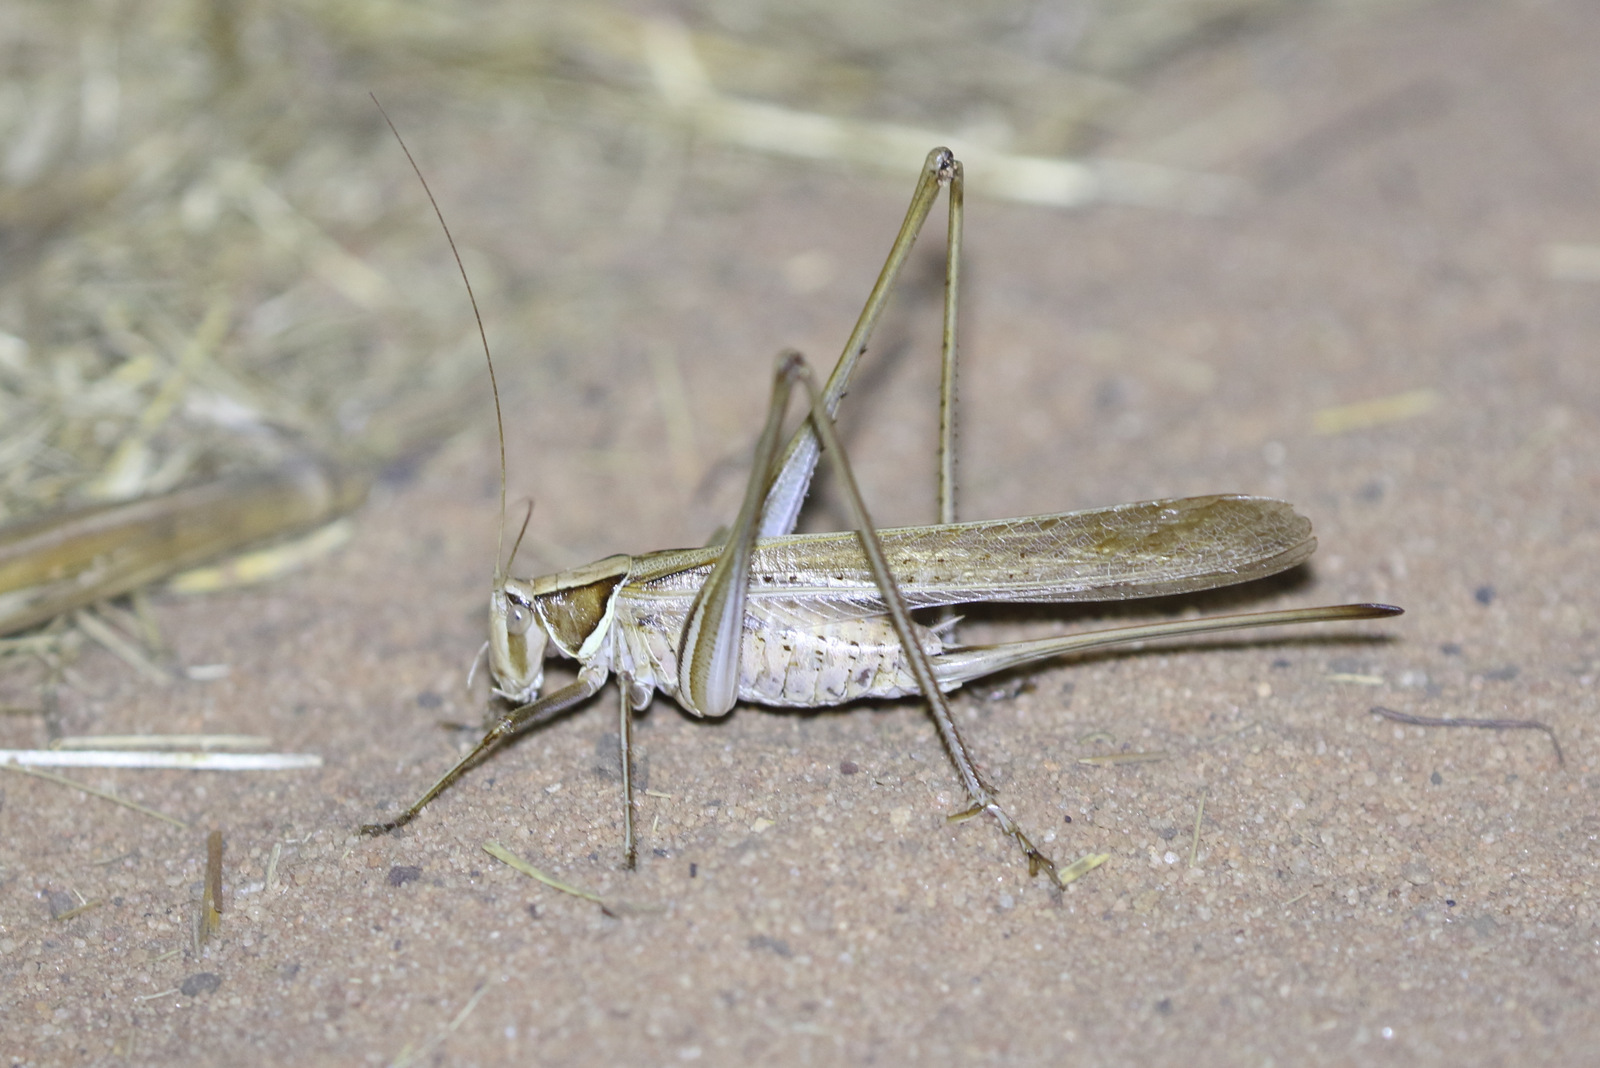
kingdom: Animalia
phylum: Arthropoda
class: Insecta
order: Orthoptera
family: Tettigoniidae
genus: Chinnandectes
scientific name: Chinnandectes neenan
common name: Kimberley grass straddler
